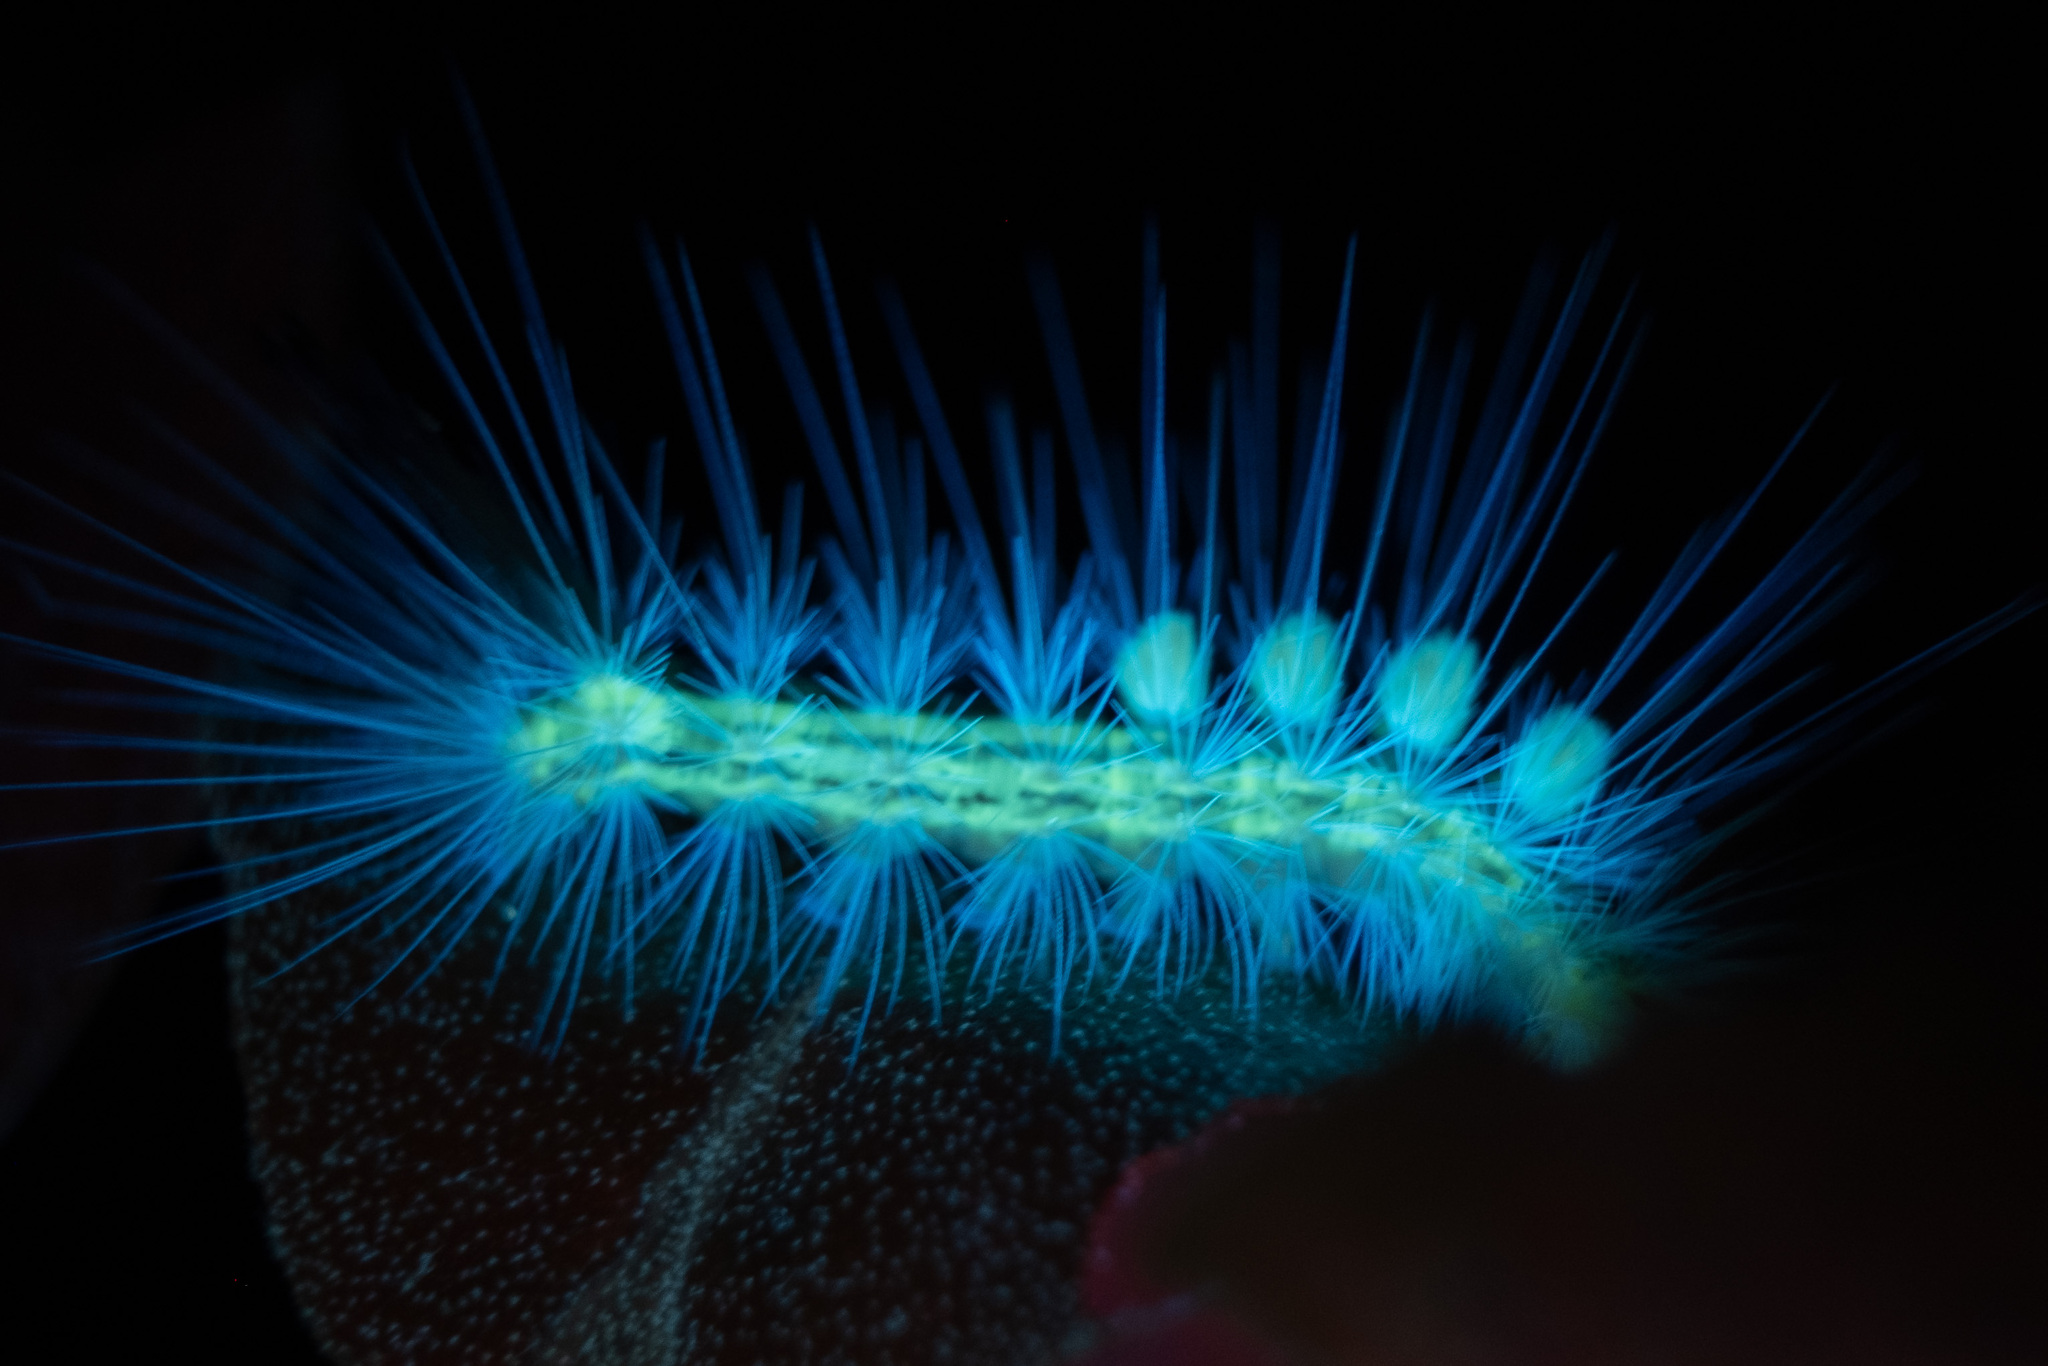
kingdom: Animalia
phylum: Arthropoda
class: Insecta
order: Lepidoptera
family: Erebidae
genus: Orgyia
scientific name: Orgyia definita
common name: Definite tussock moth
